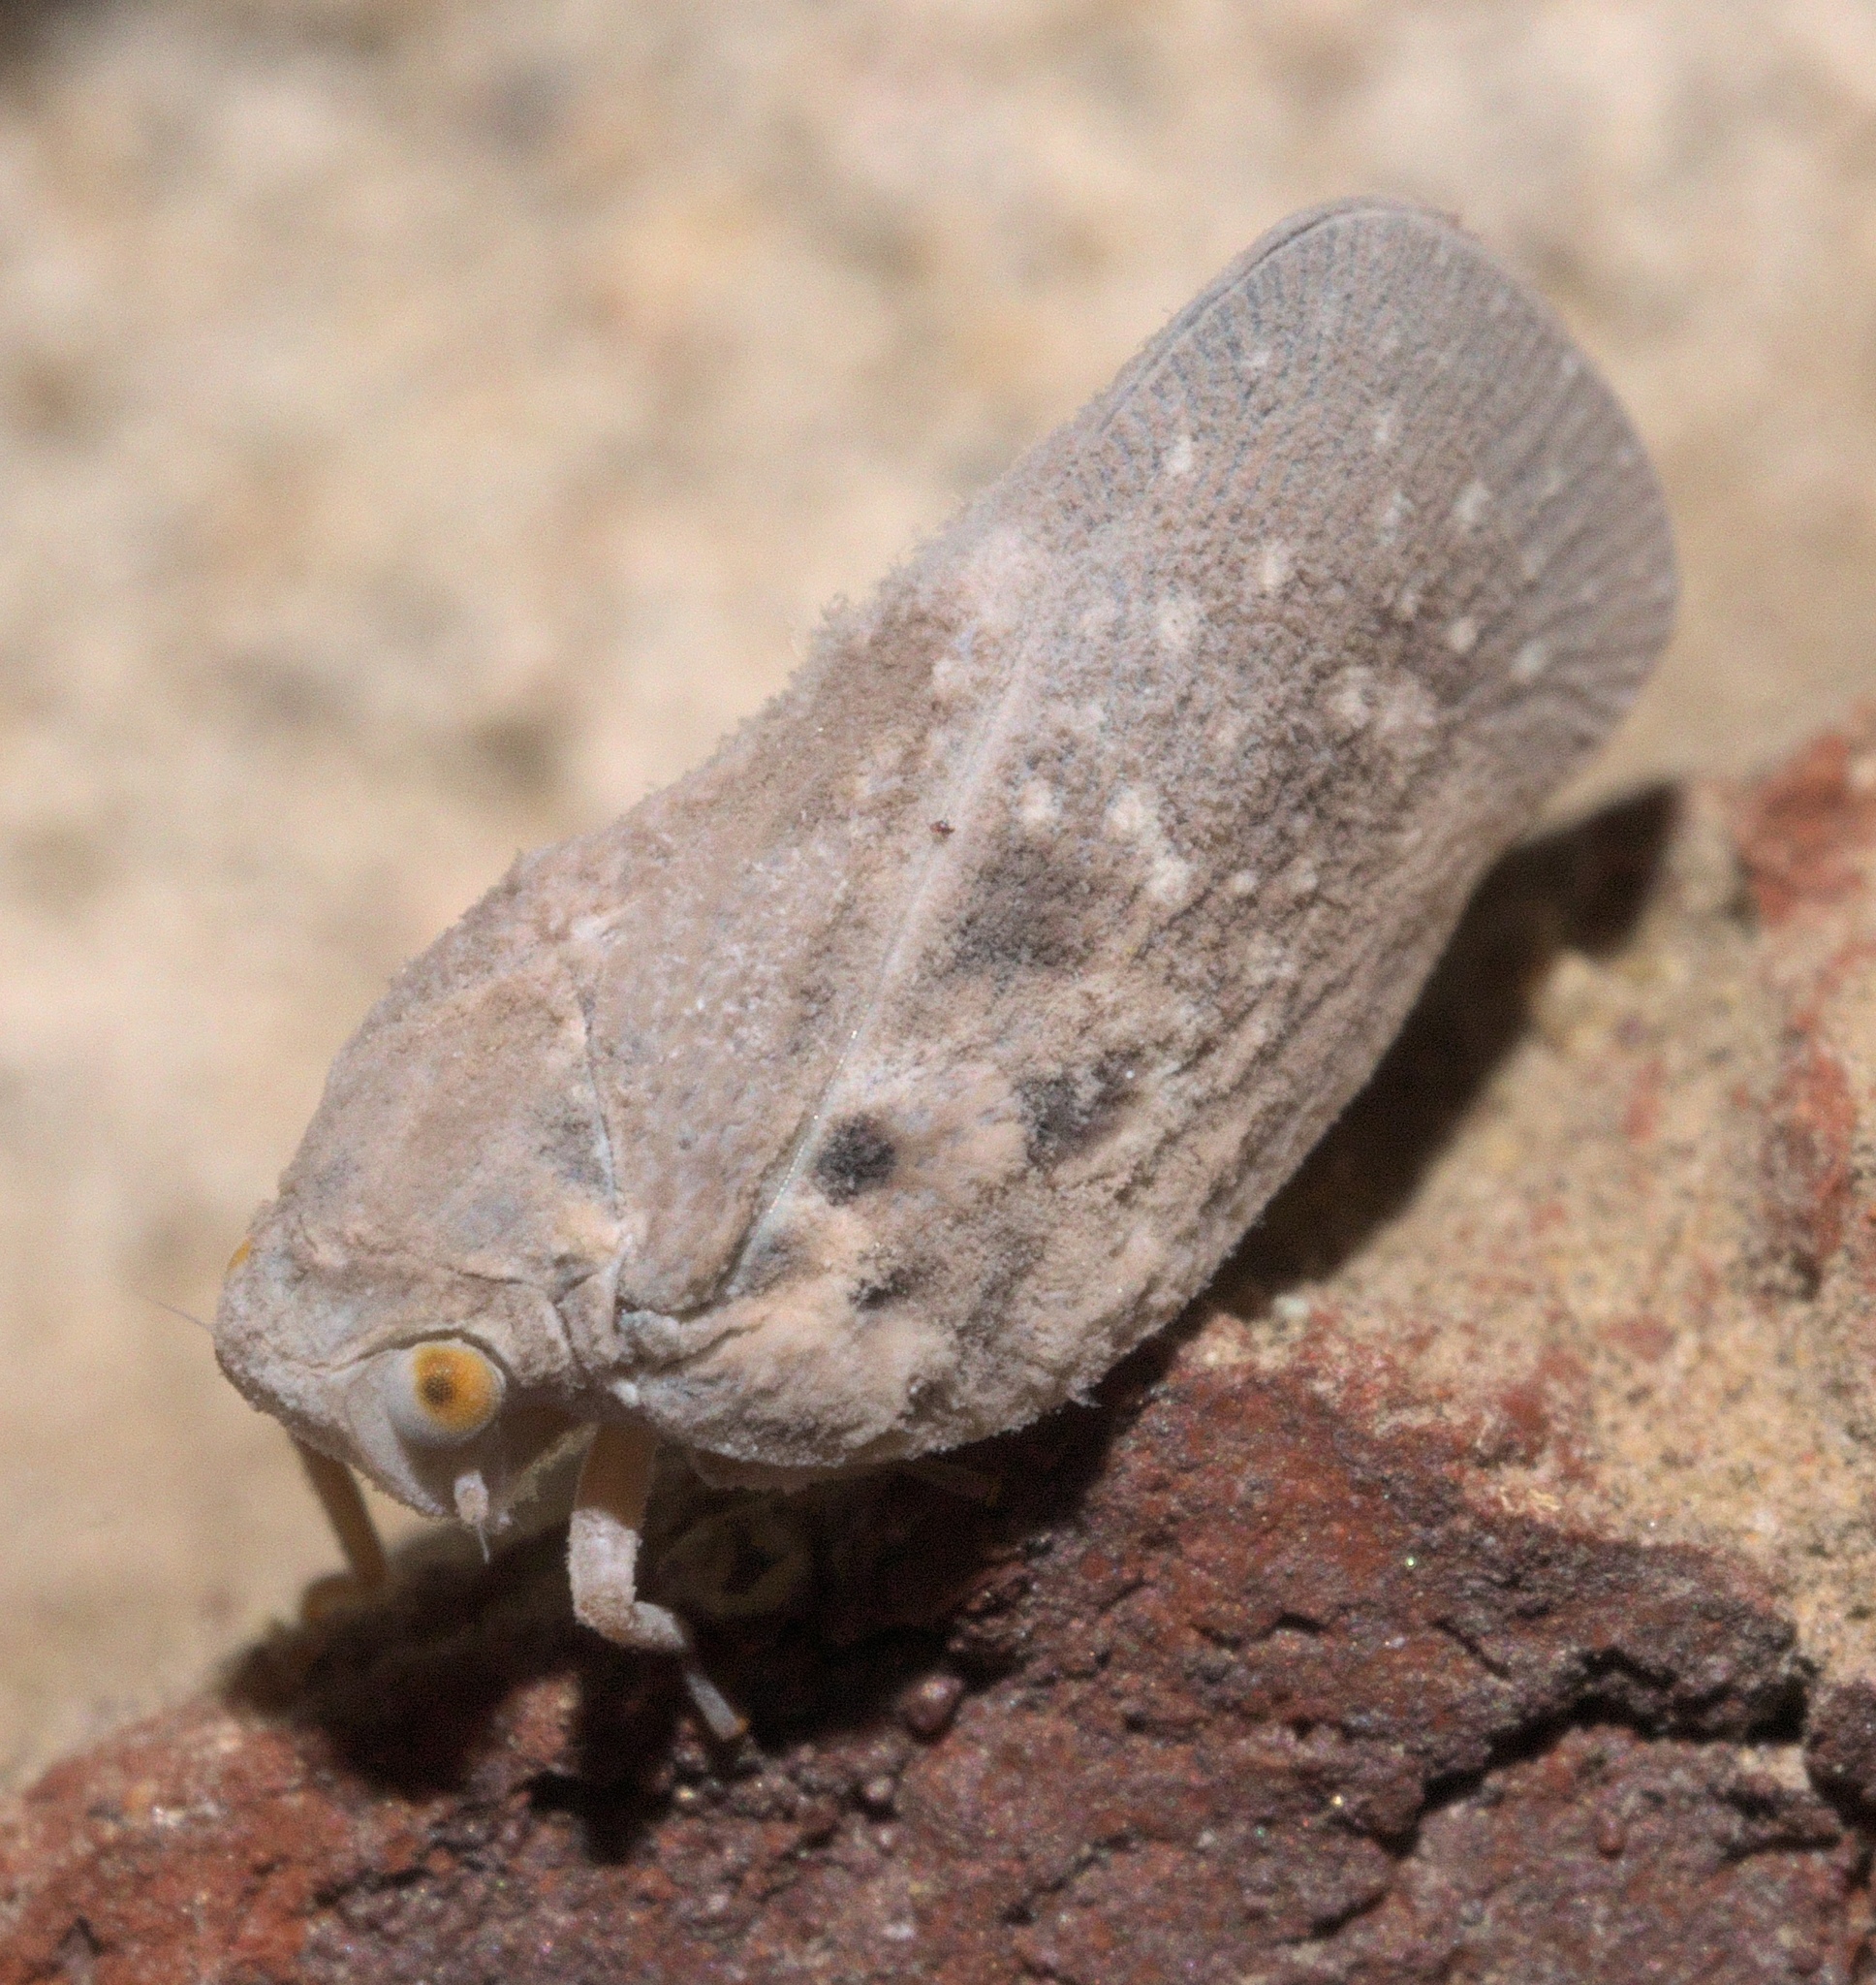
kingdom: Animalia
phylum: Arthropoda
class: Insecta
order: Hemiptera
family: Flatidae
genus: Metcalfa
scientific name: Metcalfa pruinosa
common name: Citrus flatid planthopper
